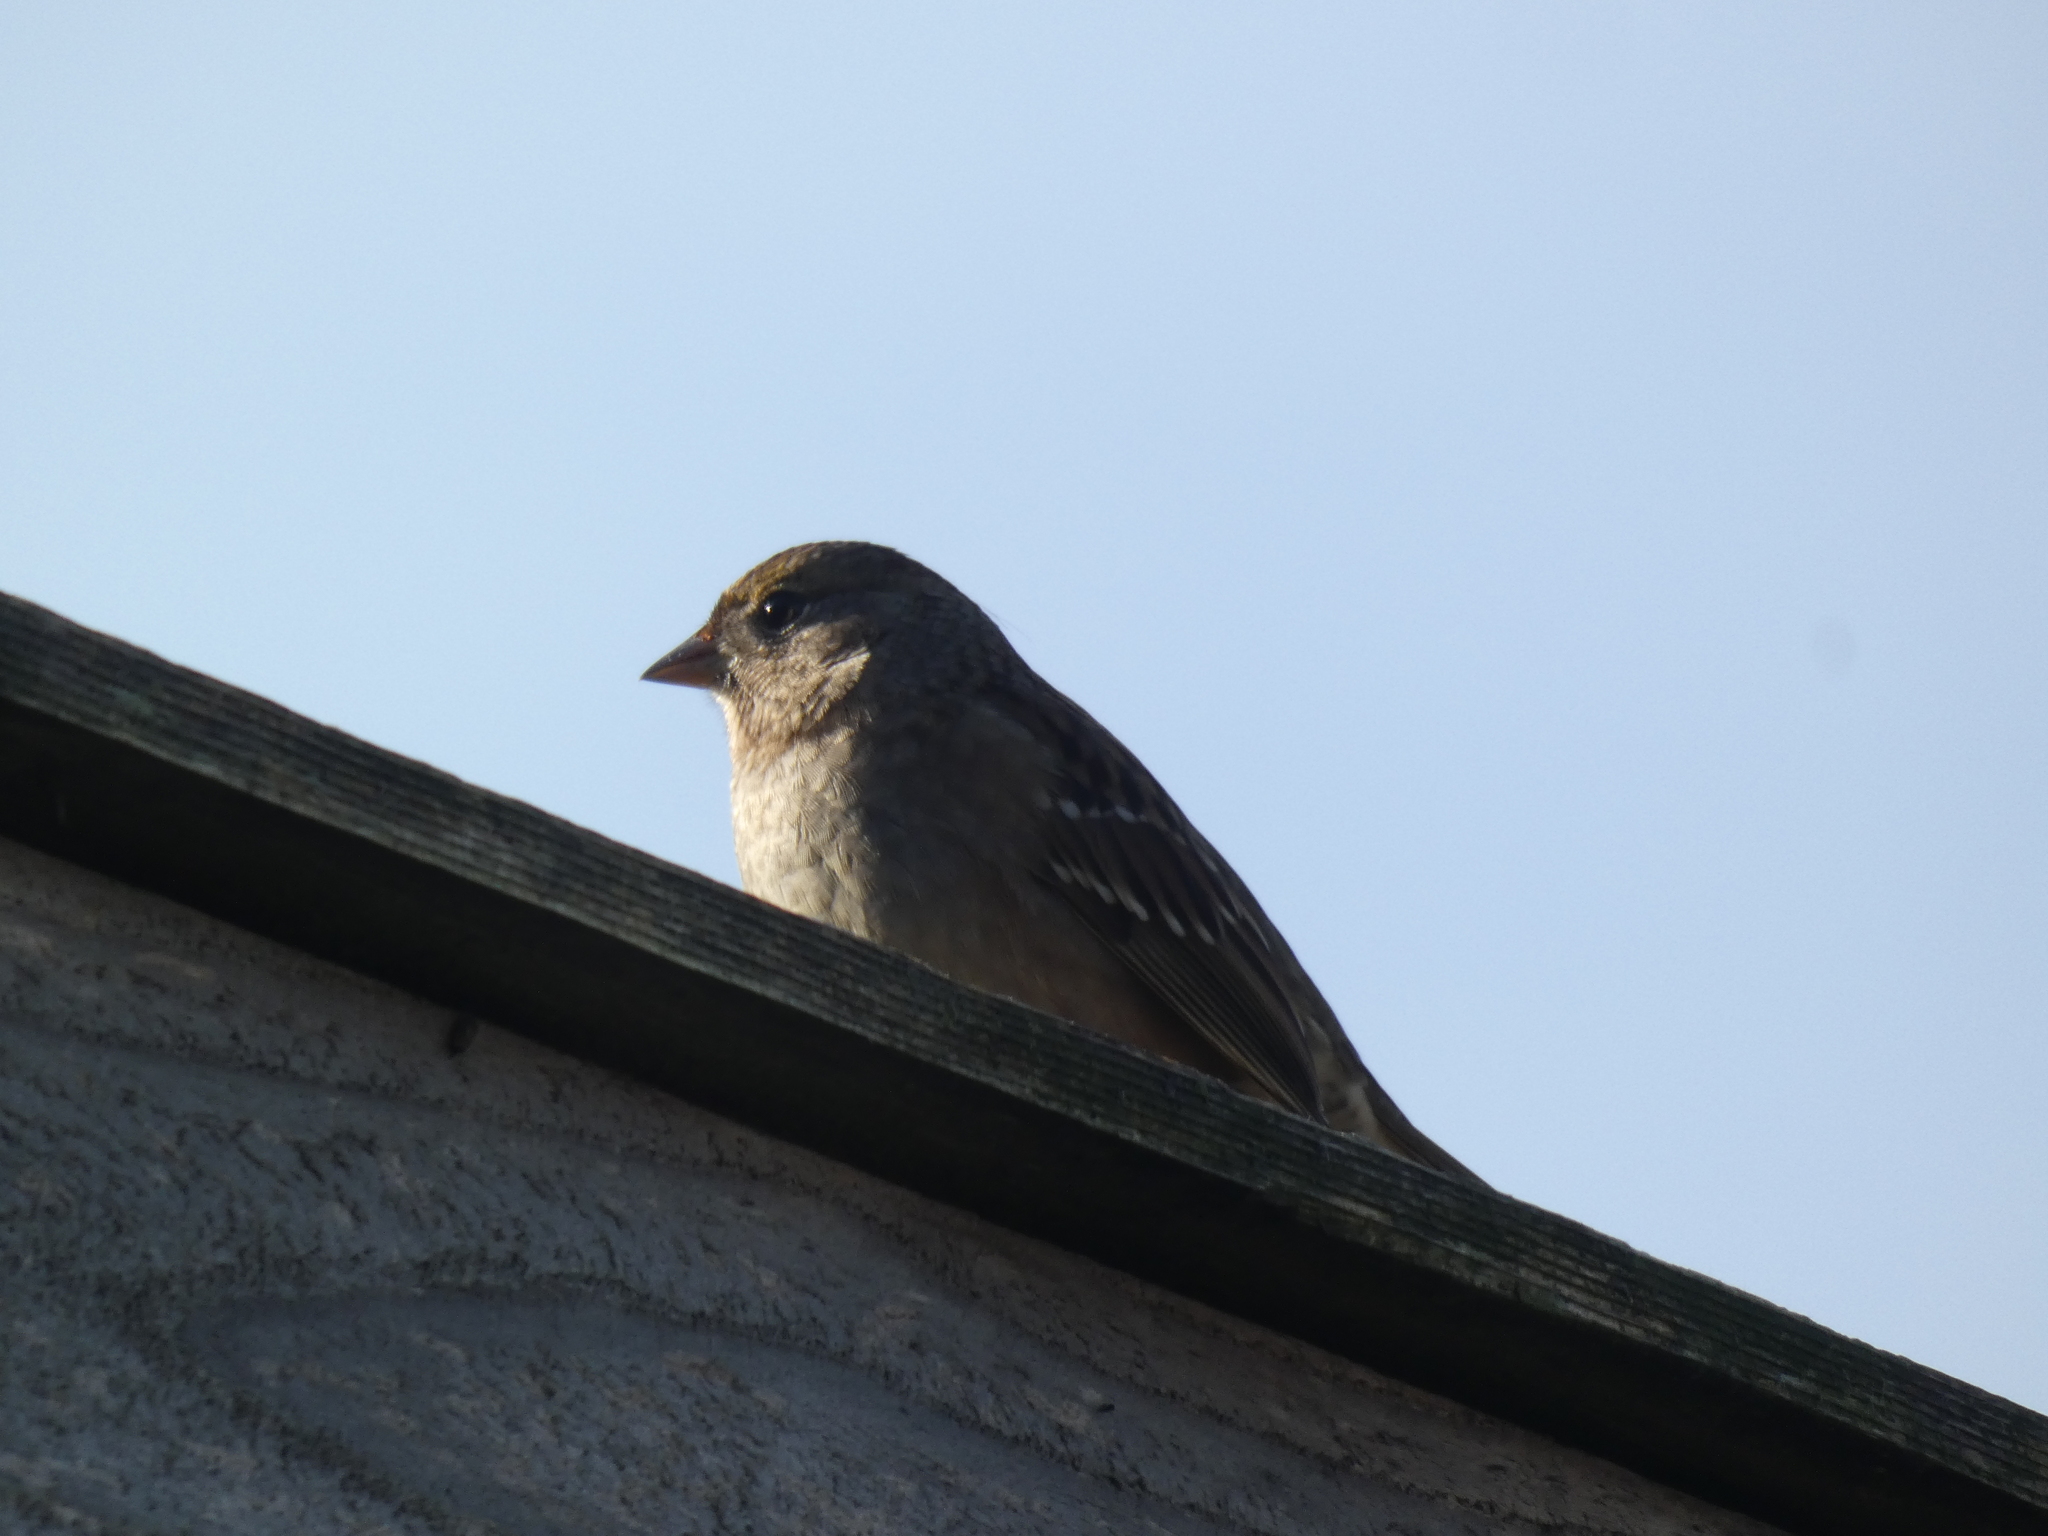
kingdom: Animalia
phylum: Chordata
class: Aves
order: Passeriformes
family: Passerellidae
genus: Zonotrichia
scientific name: Zonotrichia atricapilla
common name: Golden-crowned sparrow
